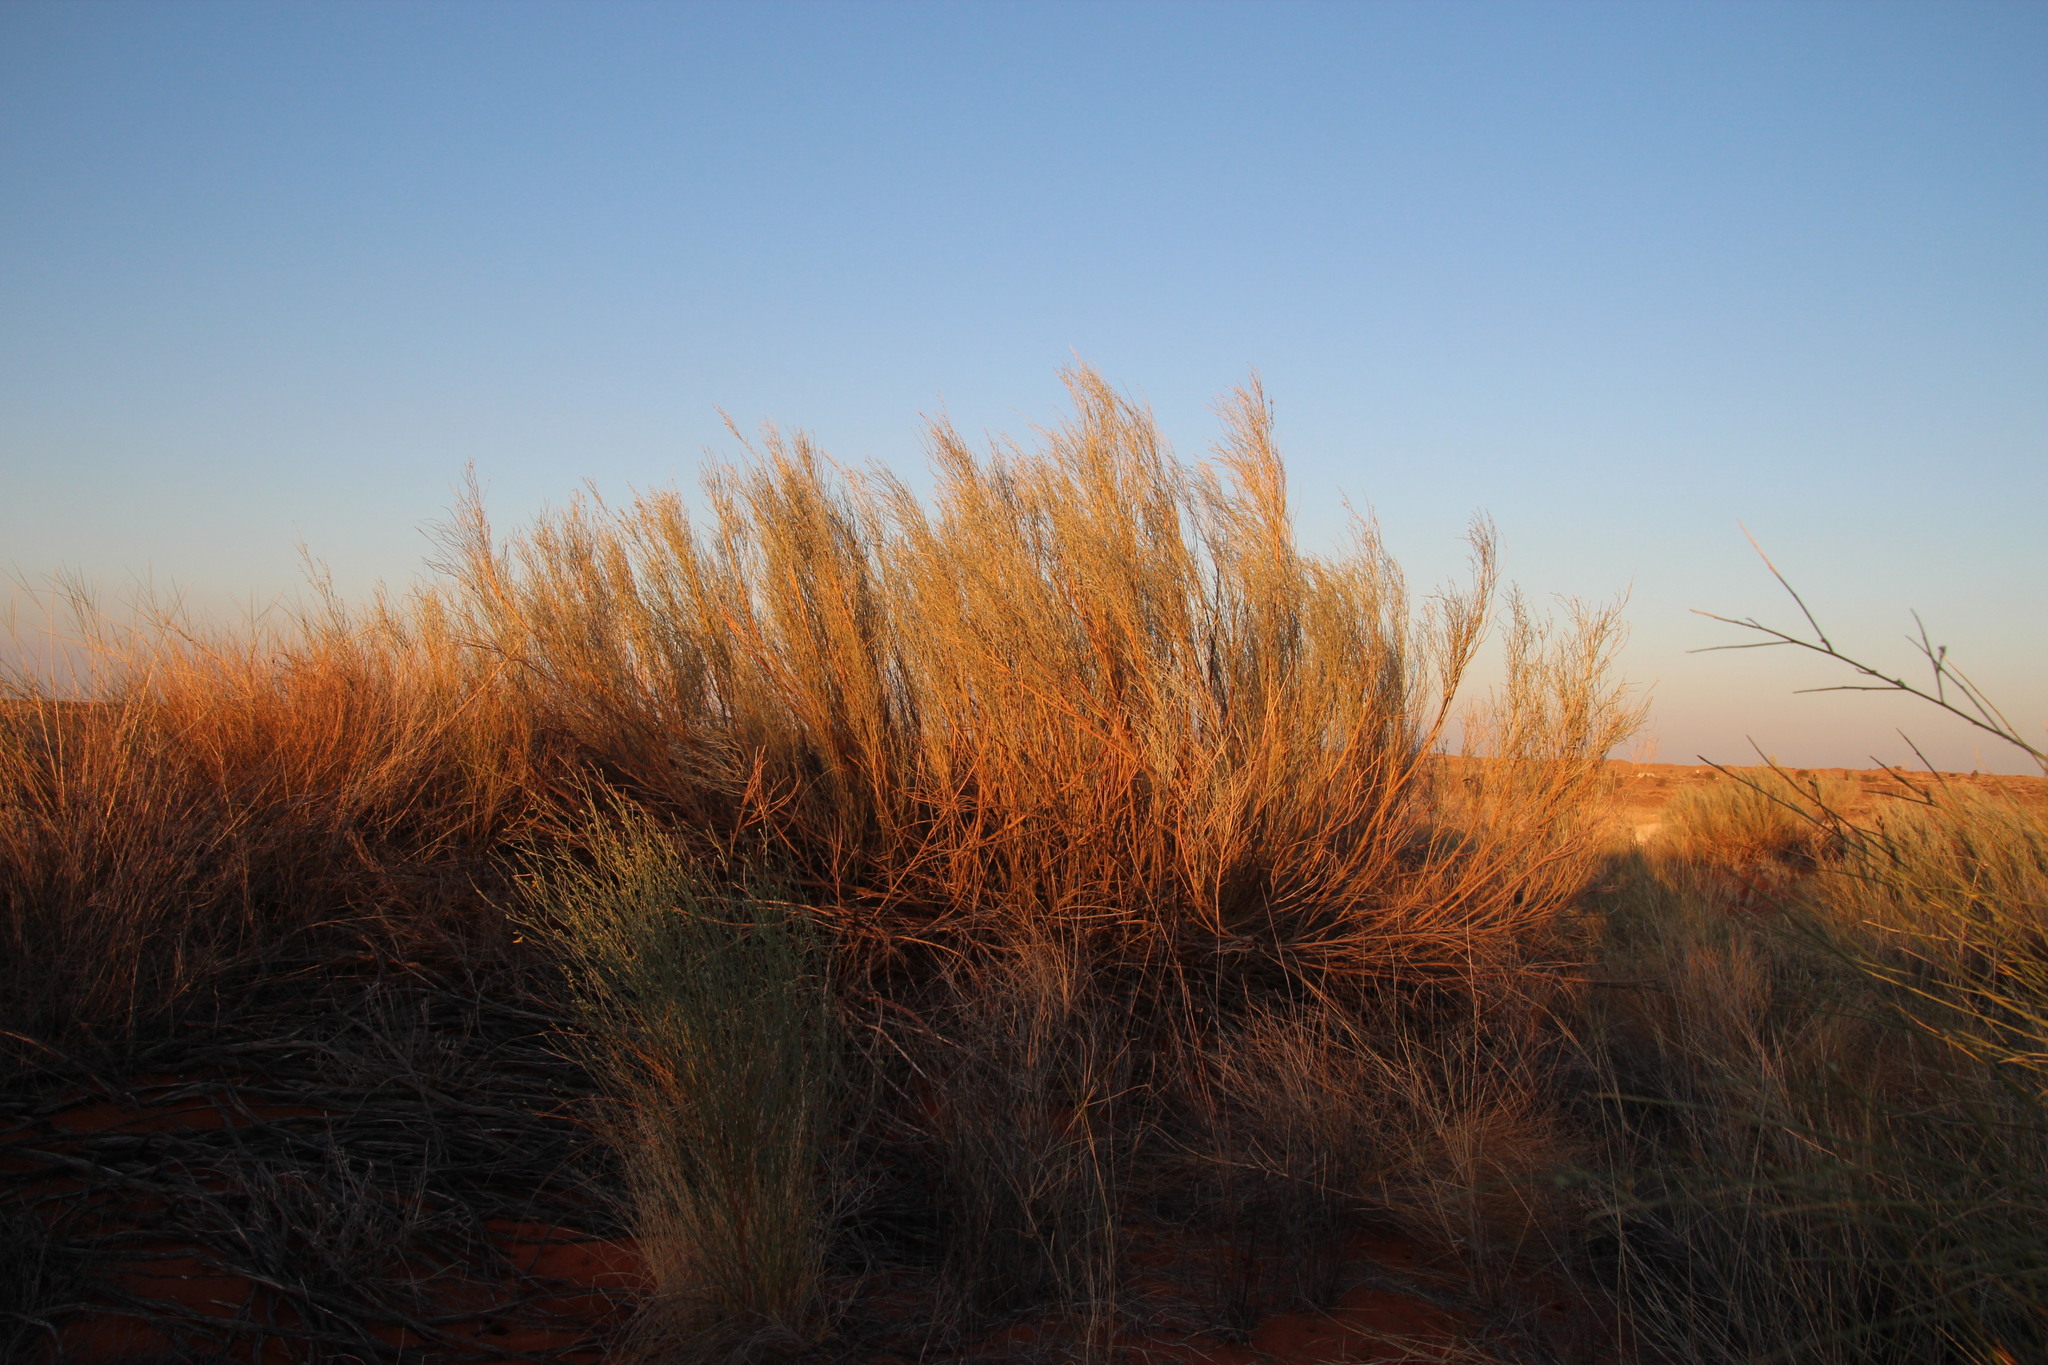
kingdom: Plantae
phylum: Tracheophyta
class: Magnoliopsida
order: Fabales
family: Fabaceae
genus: Calobota
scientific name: Calobota linearifolia
